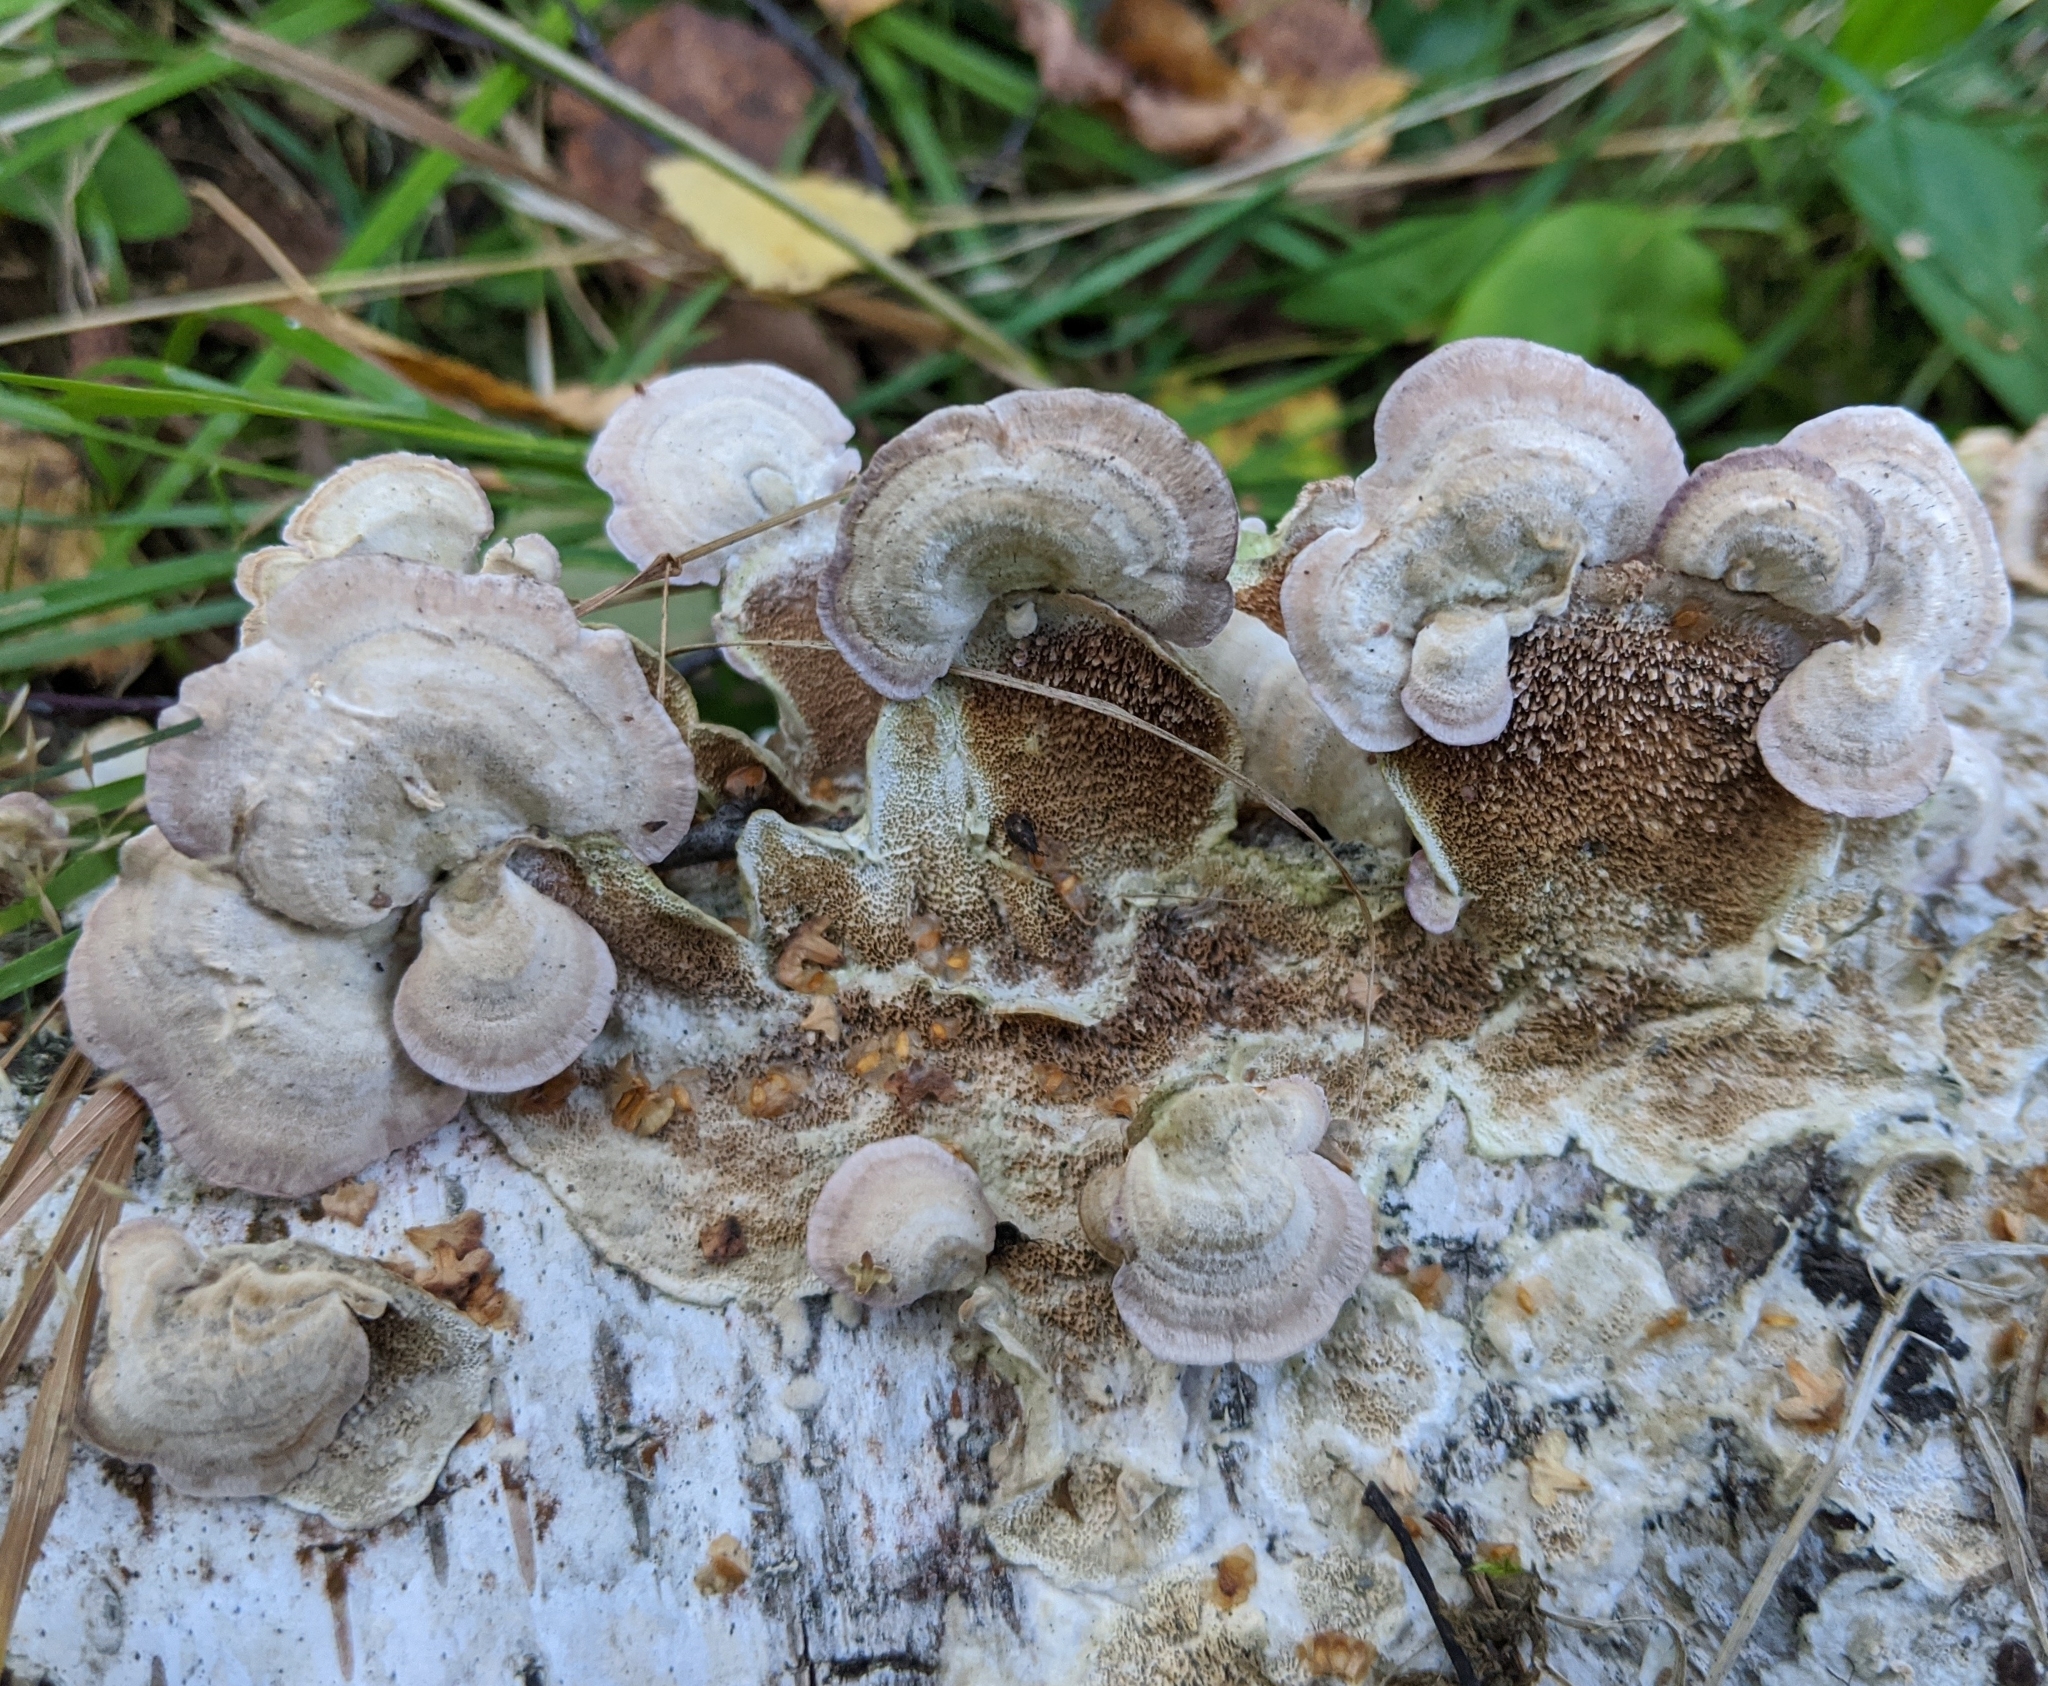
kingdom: Fungi
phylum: Basidiomycota
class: Agaricomycetes
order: Hymenochaetales
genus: Trichaptum
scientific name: Trichaptum biforme
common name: Violet-toothed polypore
